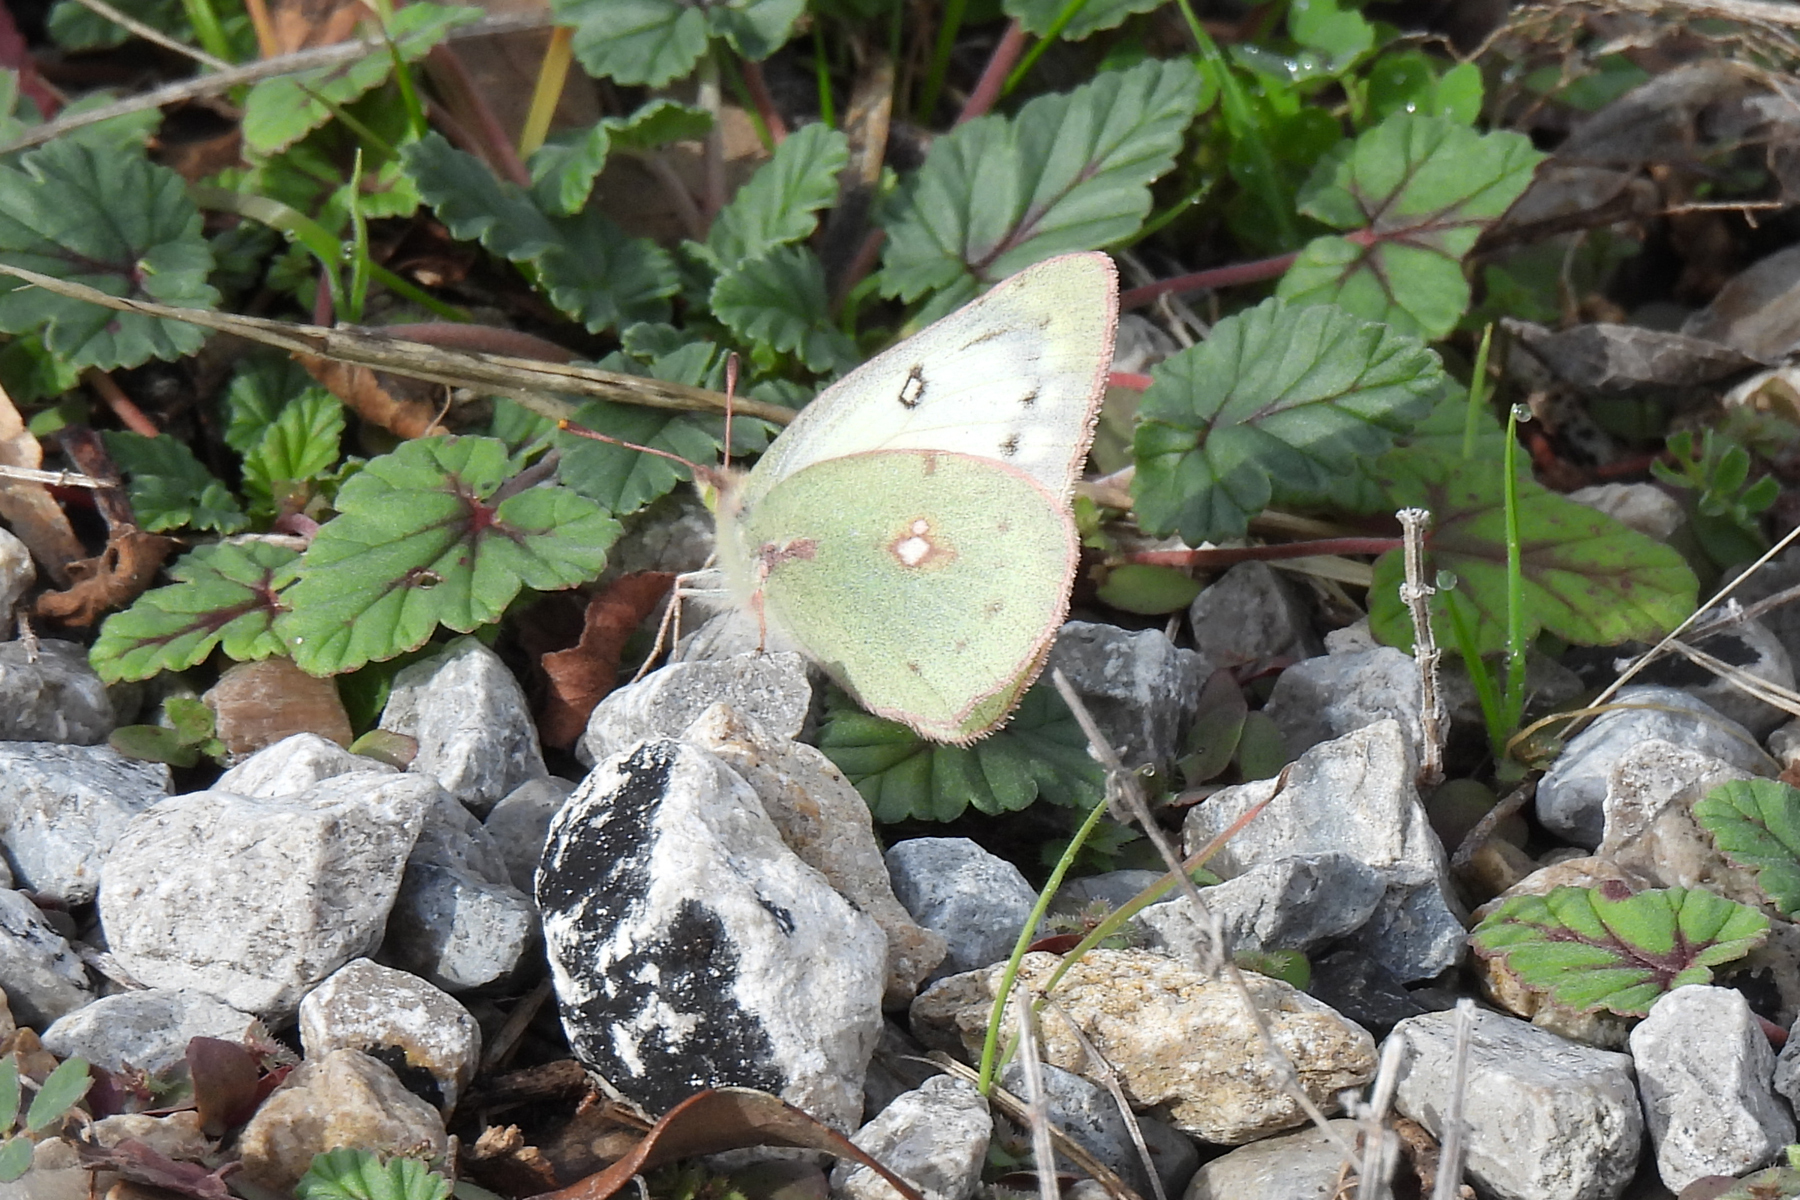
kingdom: Animalia
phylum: Arthropoda
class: Insecta
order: Lepidoptera
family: Pieridae
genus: Colias
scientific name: Colias eurytheme
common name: Alfalfa butterfly
